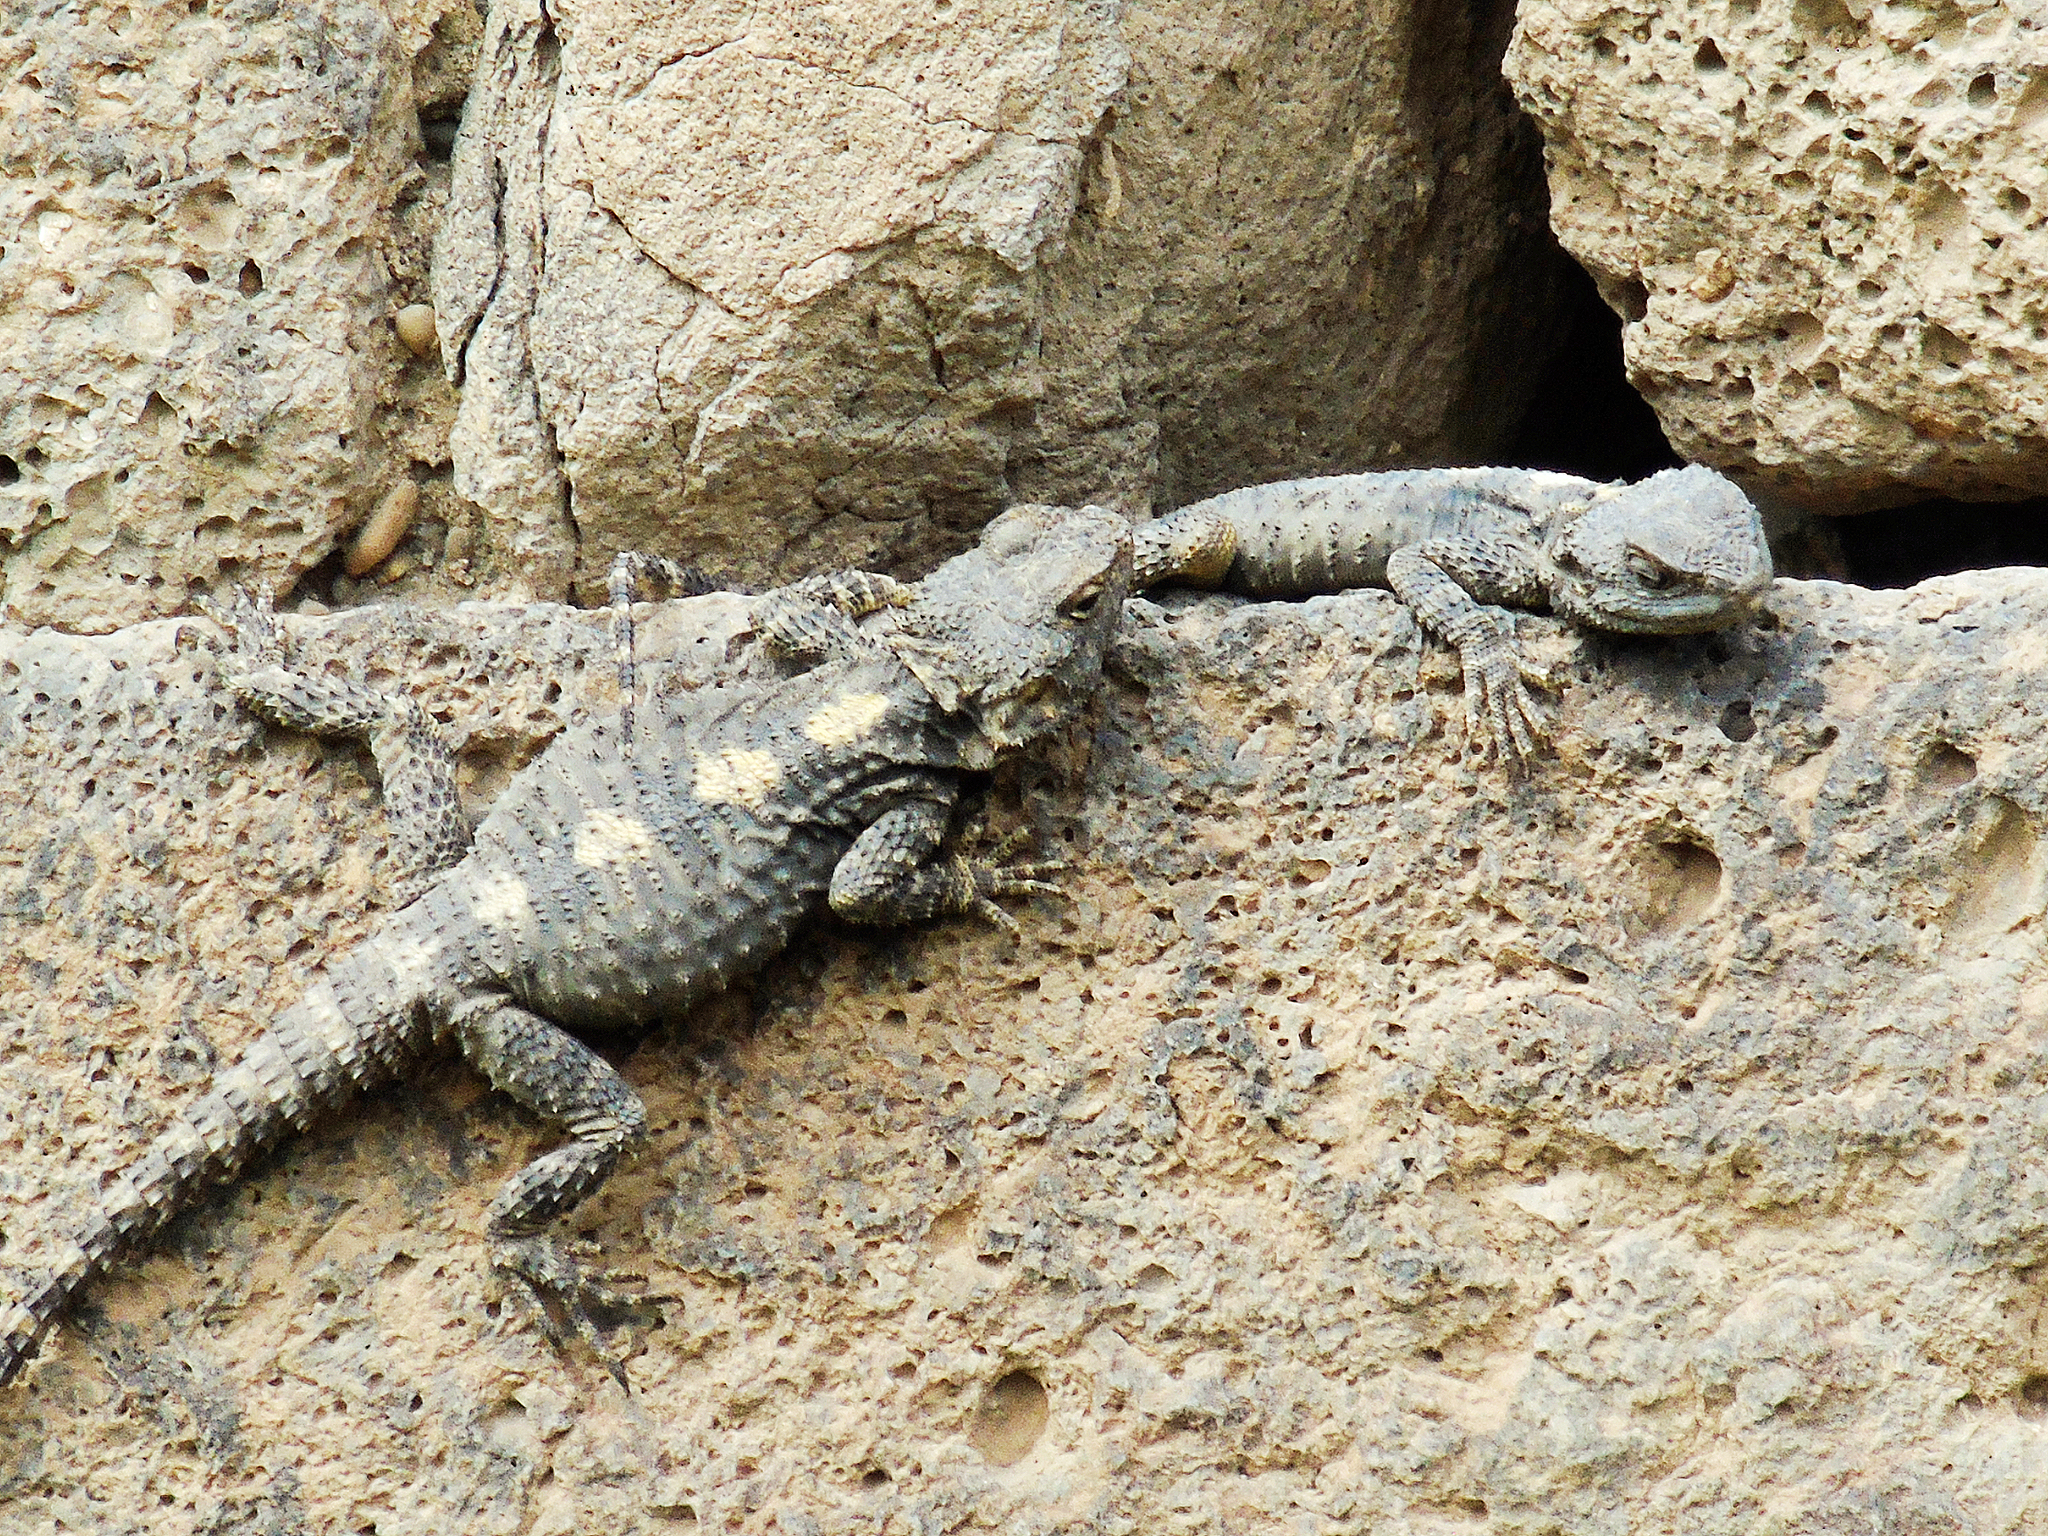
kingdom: Animalia
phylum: Chordata
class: Squamata
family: Agamidae
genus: Stellagama
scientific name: Stellagama stellio
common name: Starred agama
